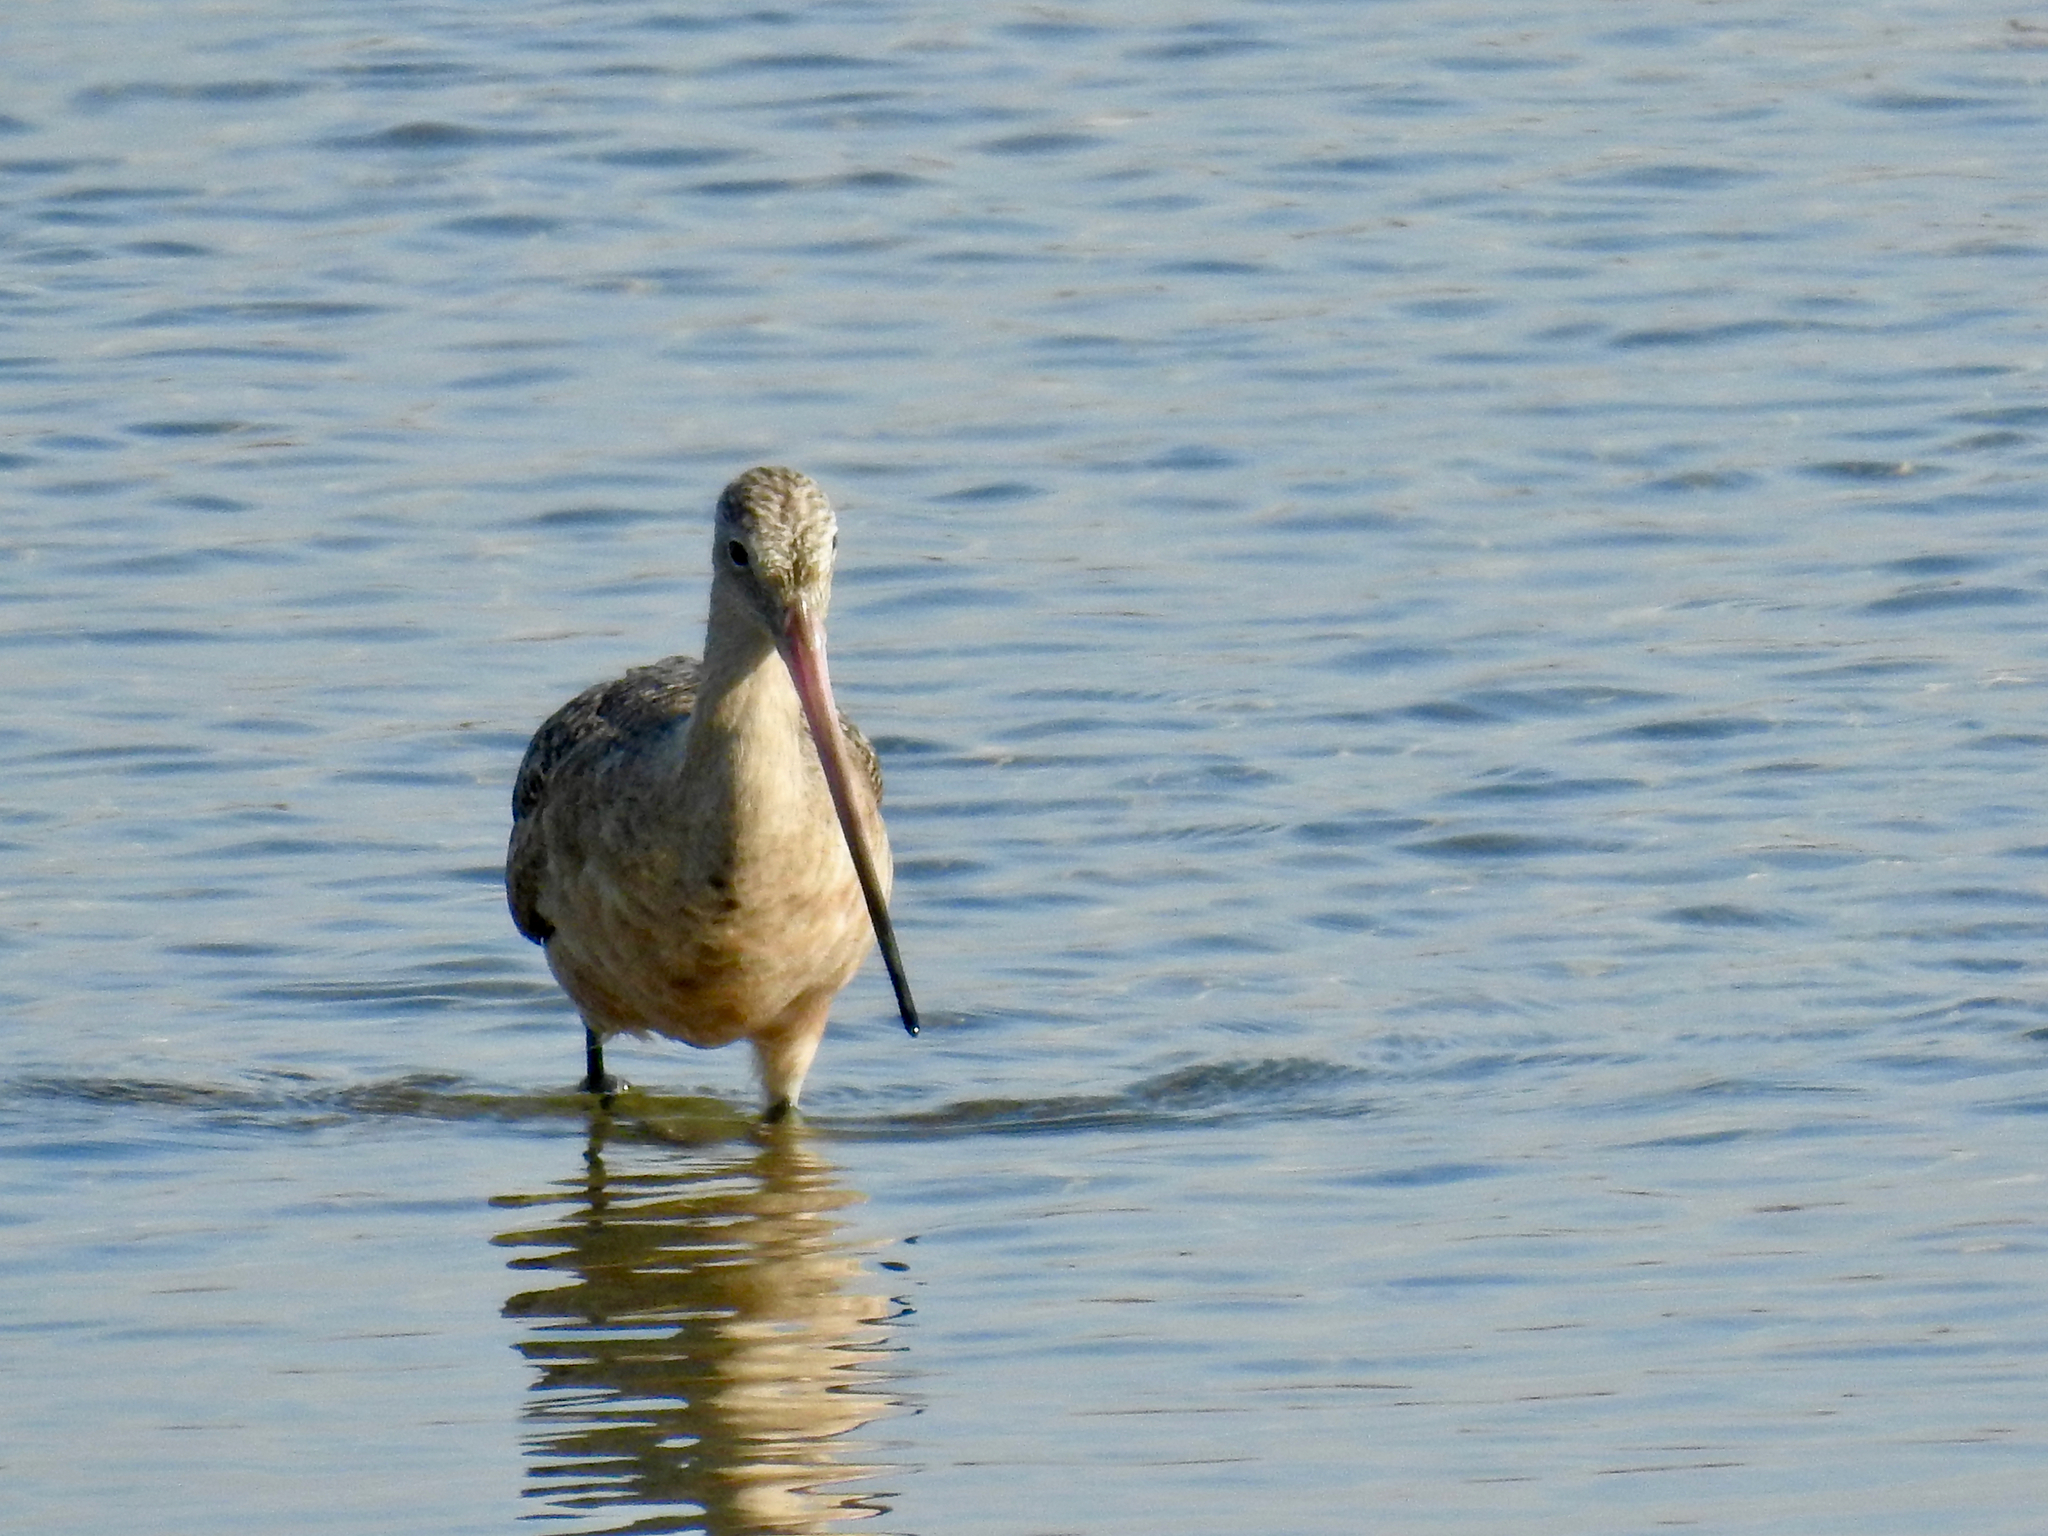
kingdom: Animalia
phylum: Chordata
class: Aves
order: Charadriiformes
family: Scolopacidae
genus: Limosa
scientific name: Limosa fedoa
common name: Marbled godwit
